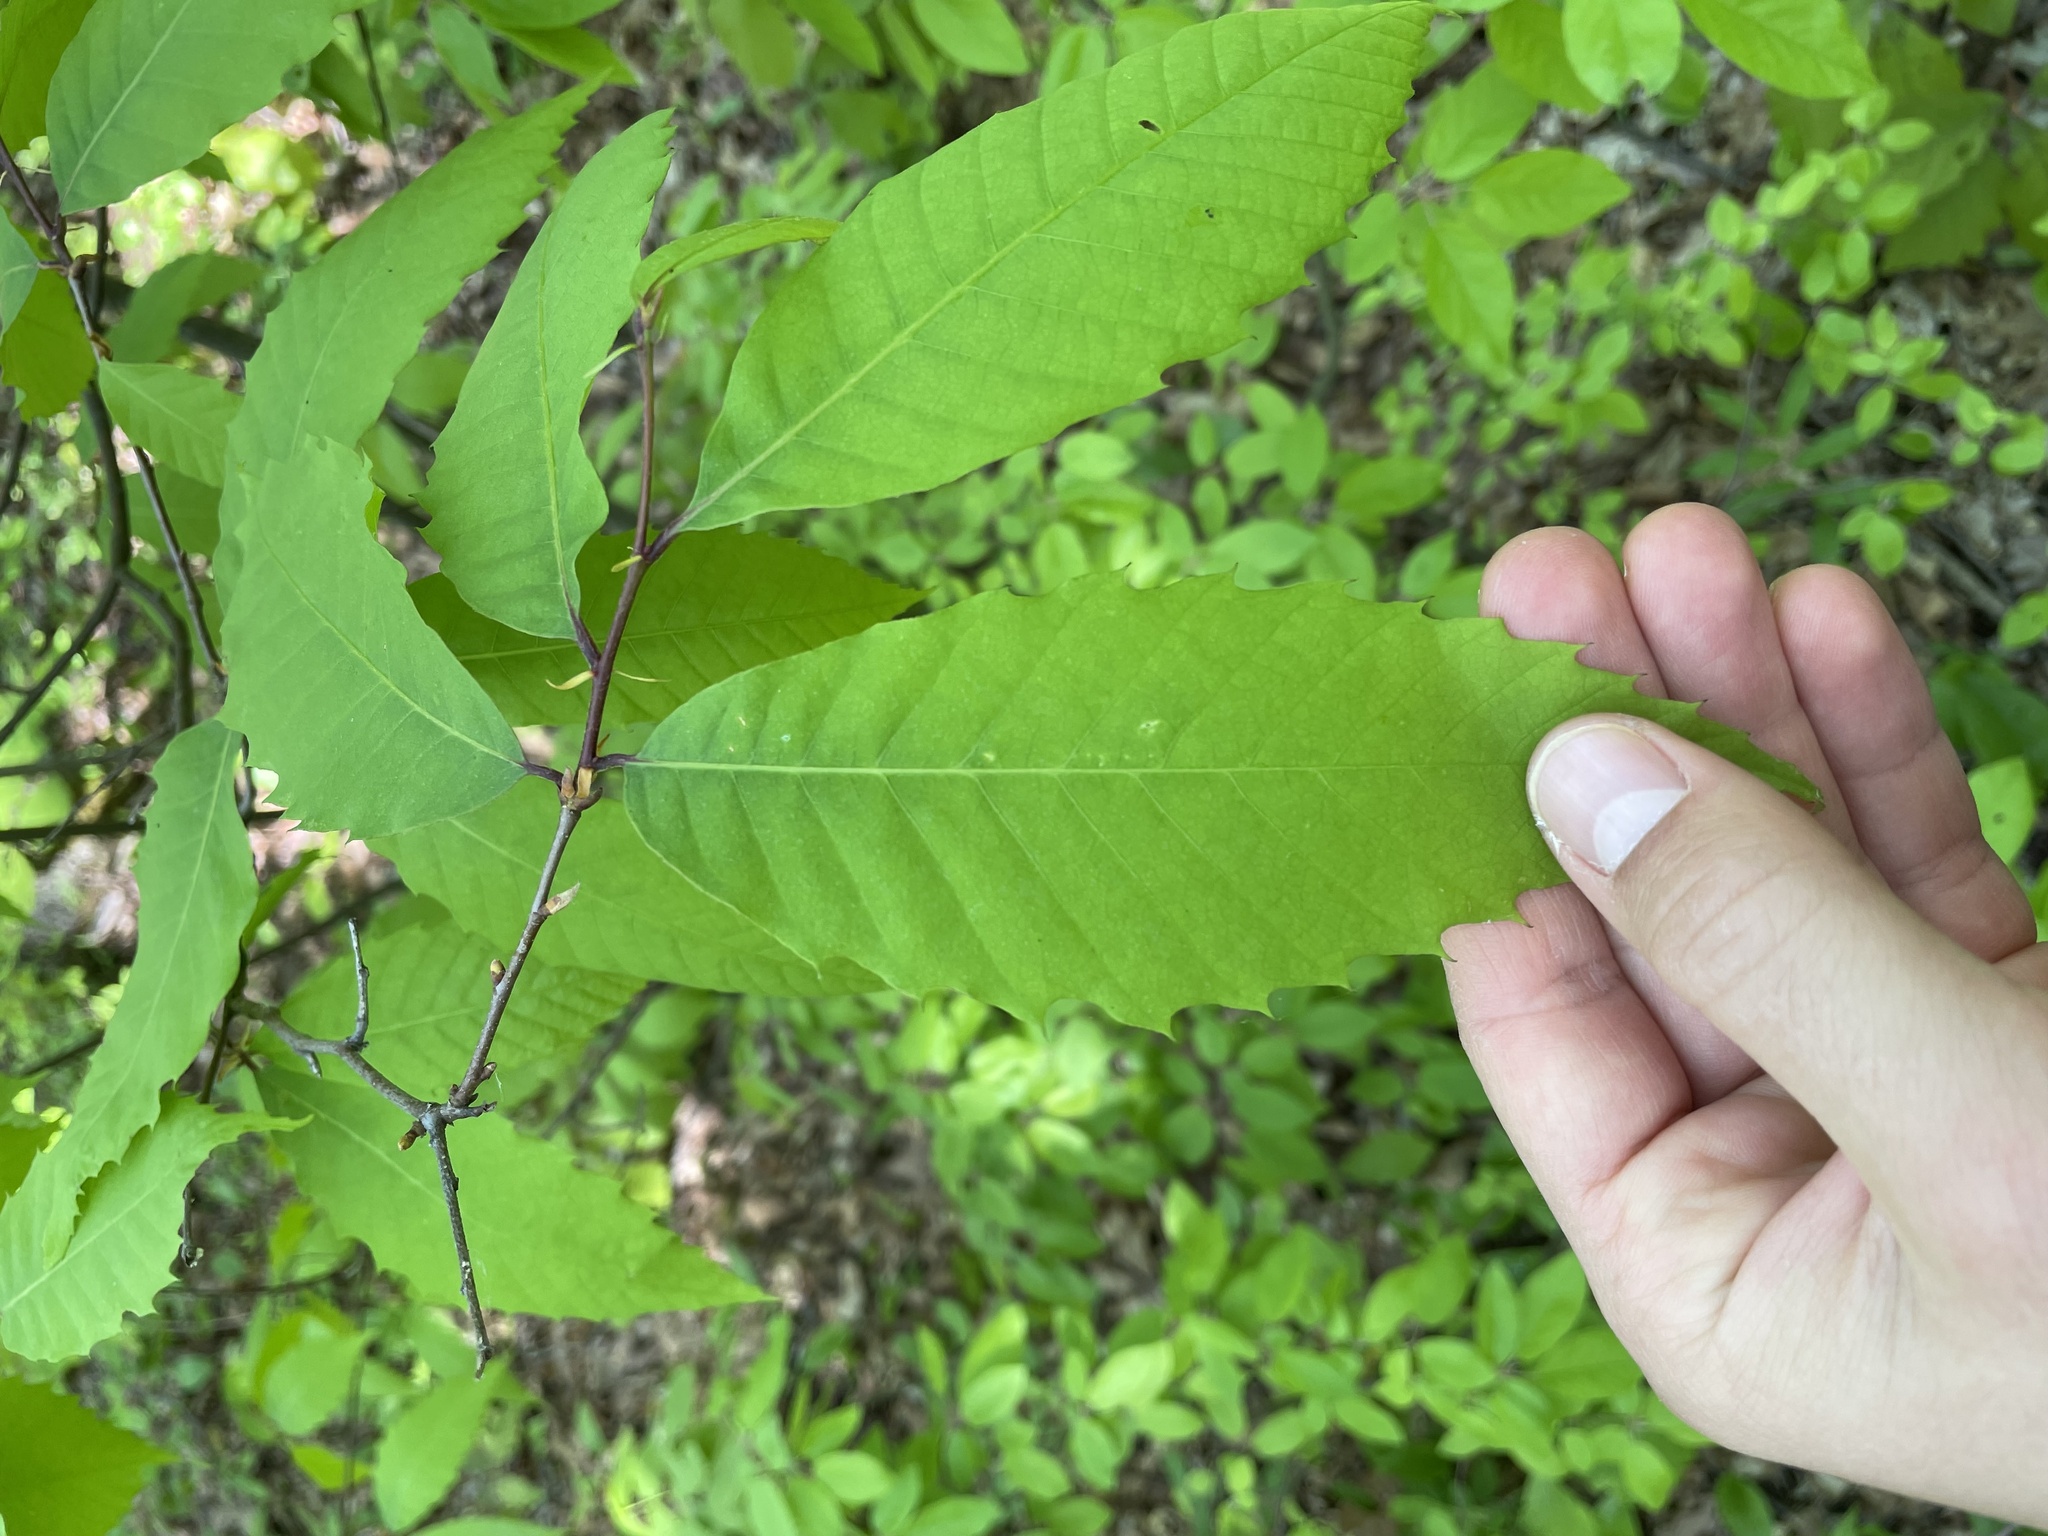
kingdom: Plantae
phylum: Tracheophyta
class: Magnoliopsida
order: Fagales
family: Fagaceae
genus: Castanea
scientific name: Castanea dentata
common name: American chestnut
